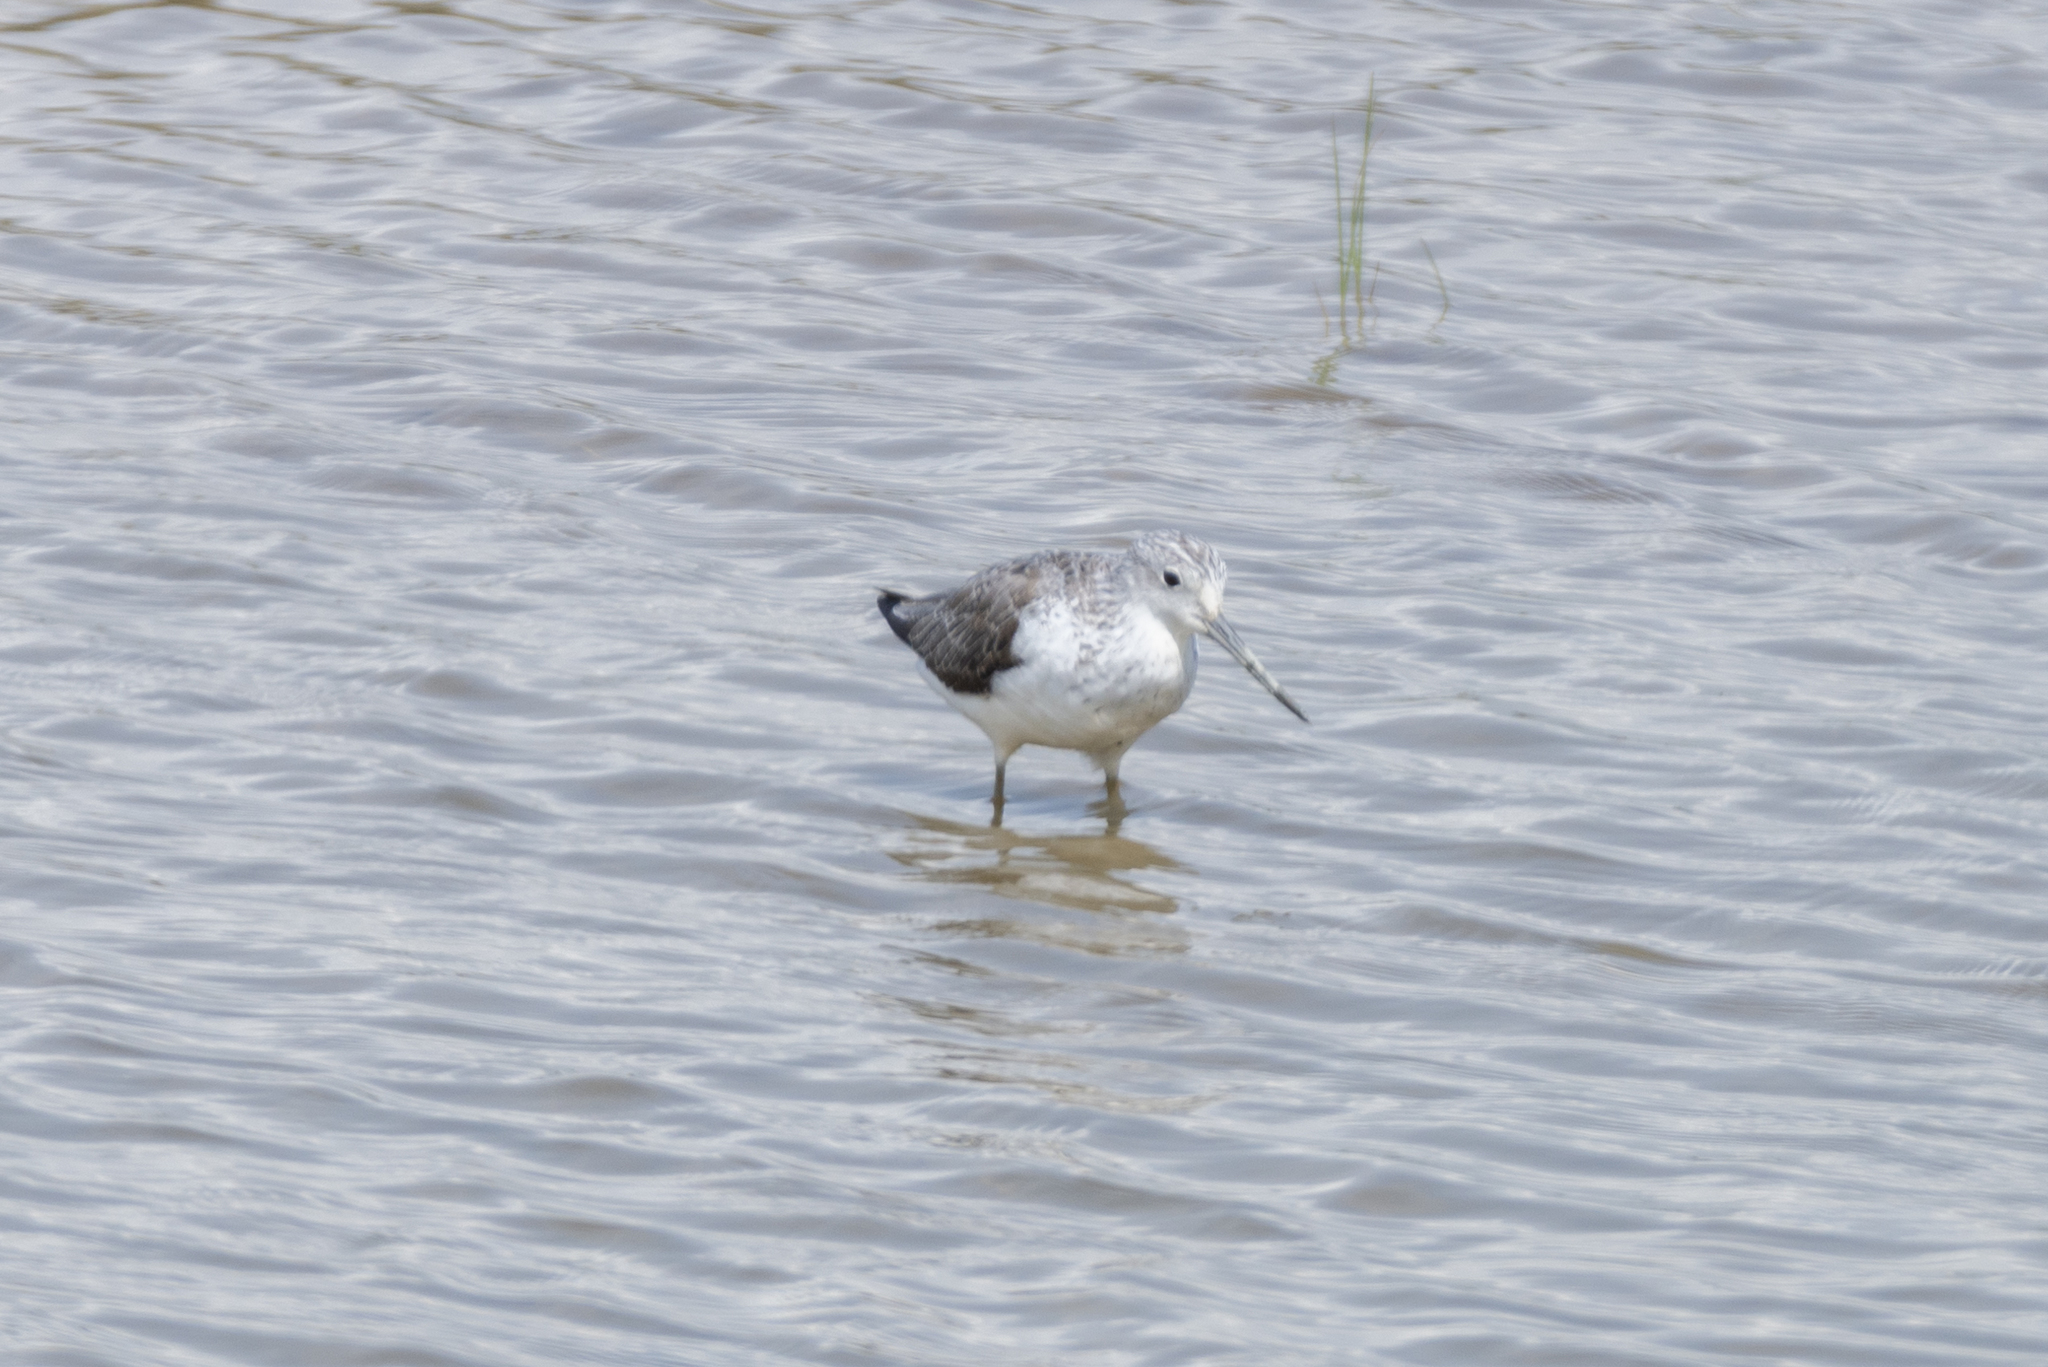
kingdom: Animalia
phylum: Chordata
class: Aves
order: Charadriiformes
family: Scolopacidae
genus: Tringa
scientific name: Tringa stagnatilis
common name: Marsh sandpiper
